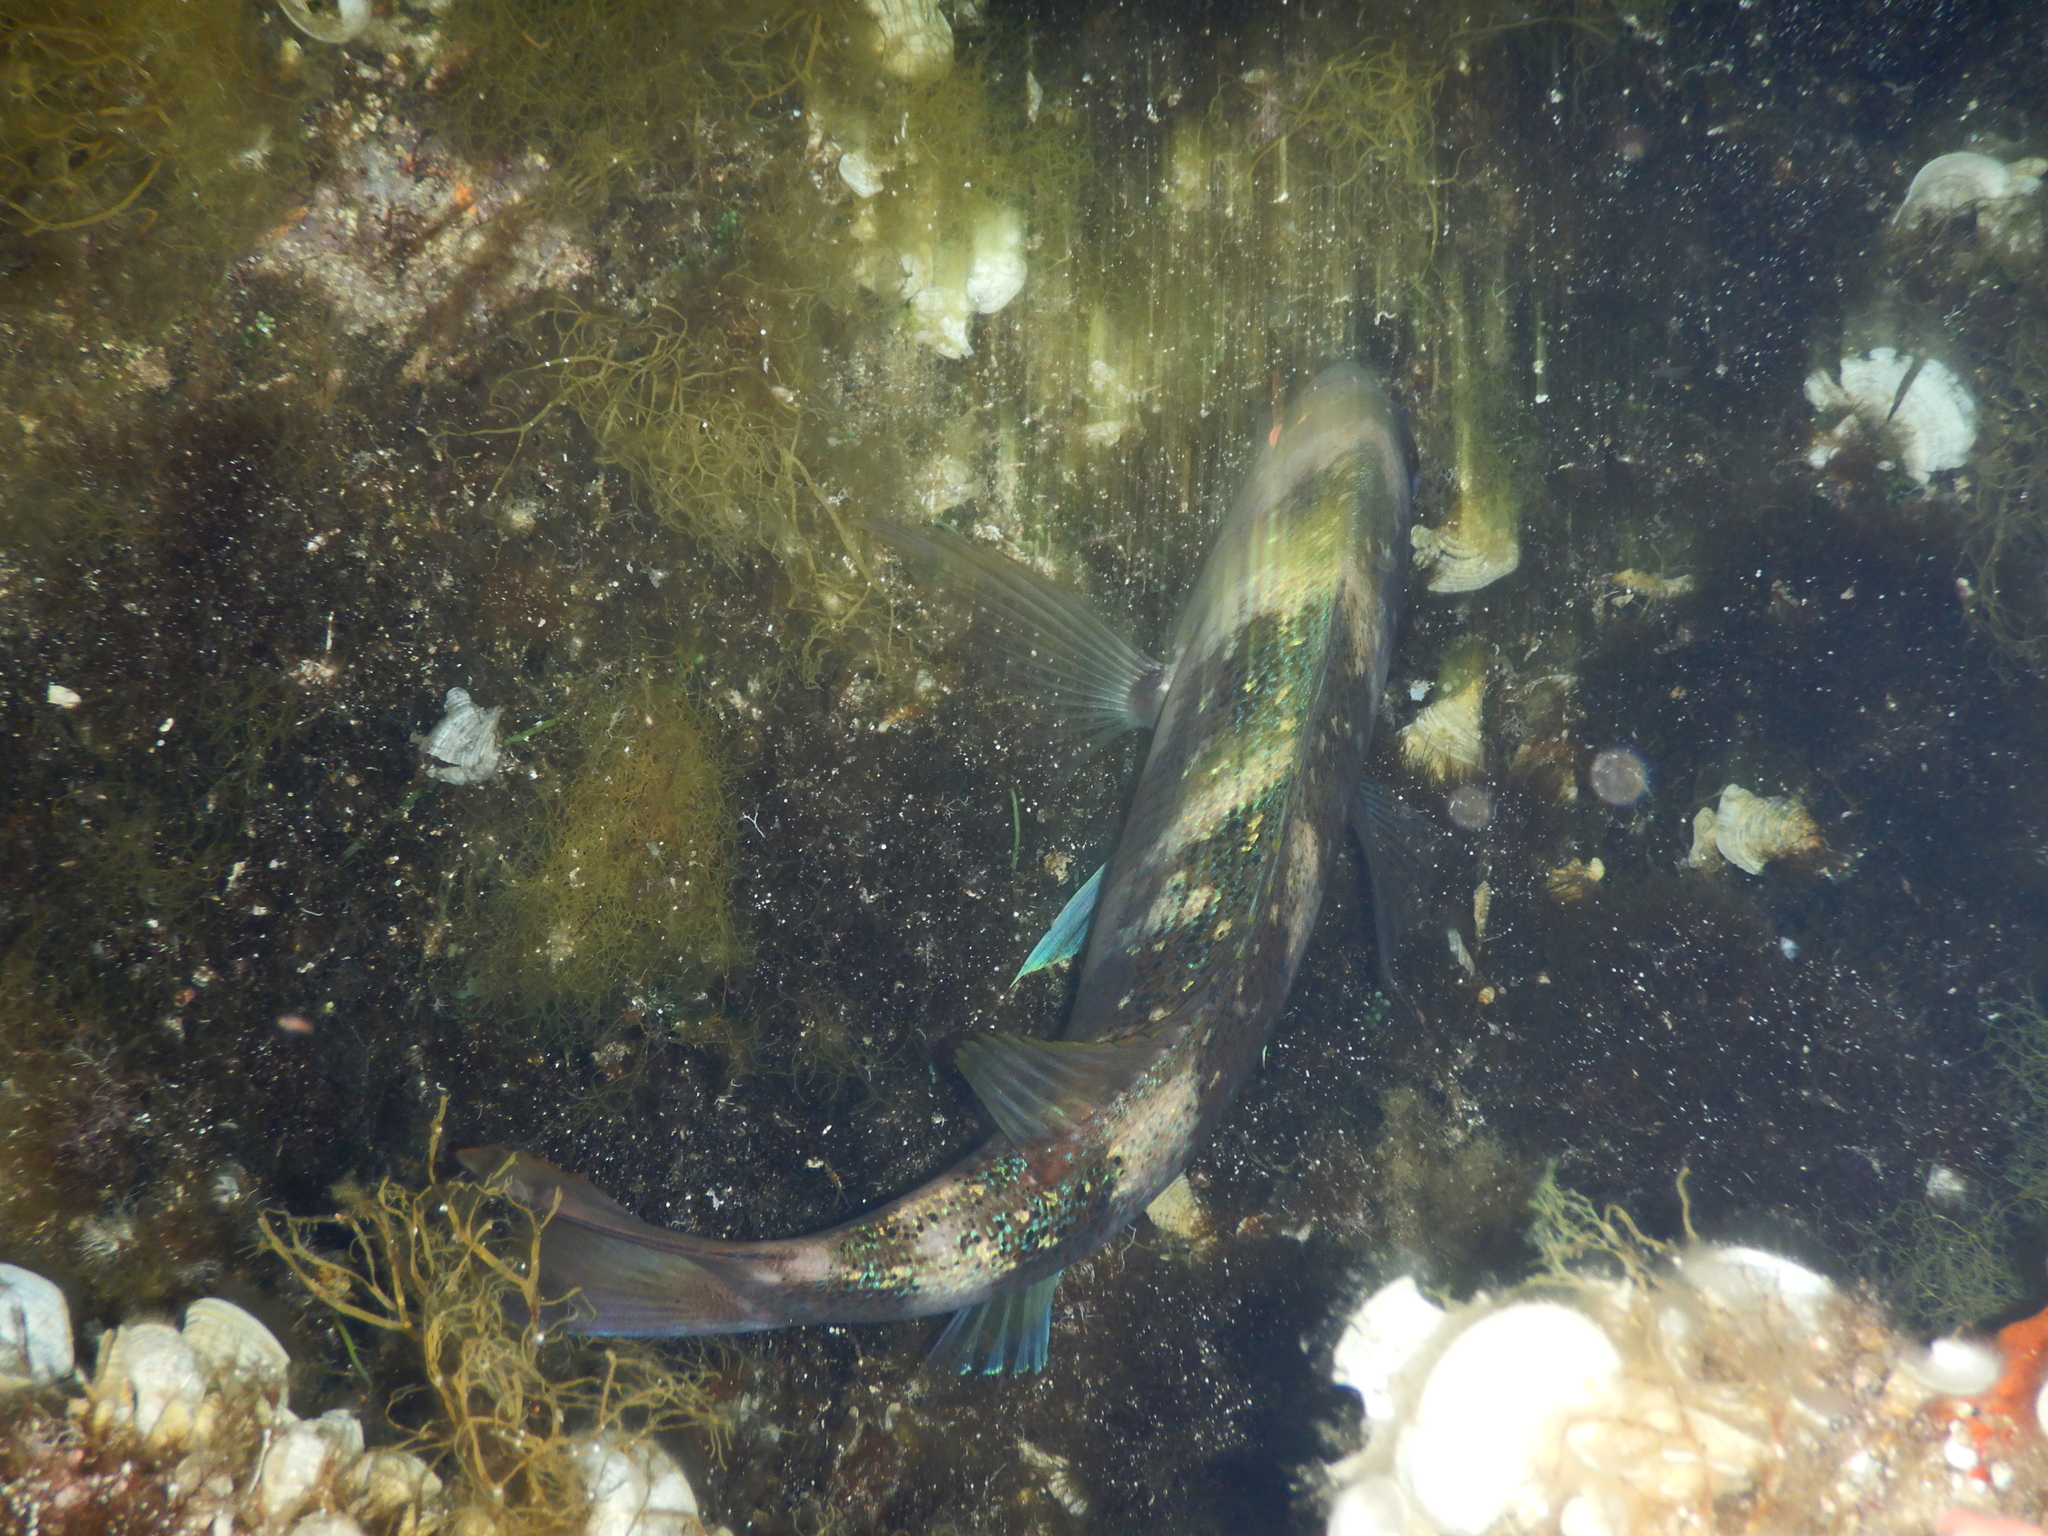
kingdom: Animalia
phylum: Chordata
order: Perciformes
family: Sparidae
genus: Dentex
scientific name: Dentex dentex
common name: Dentex
